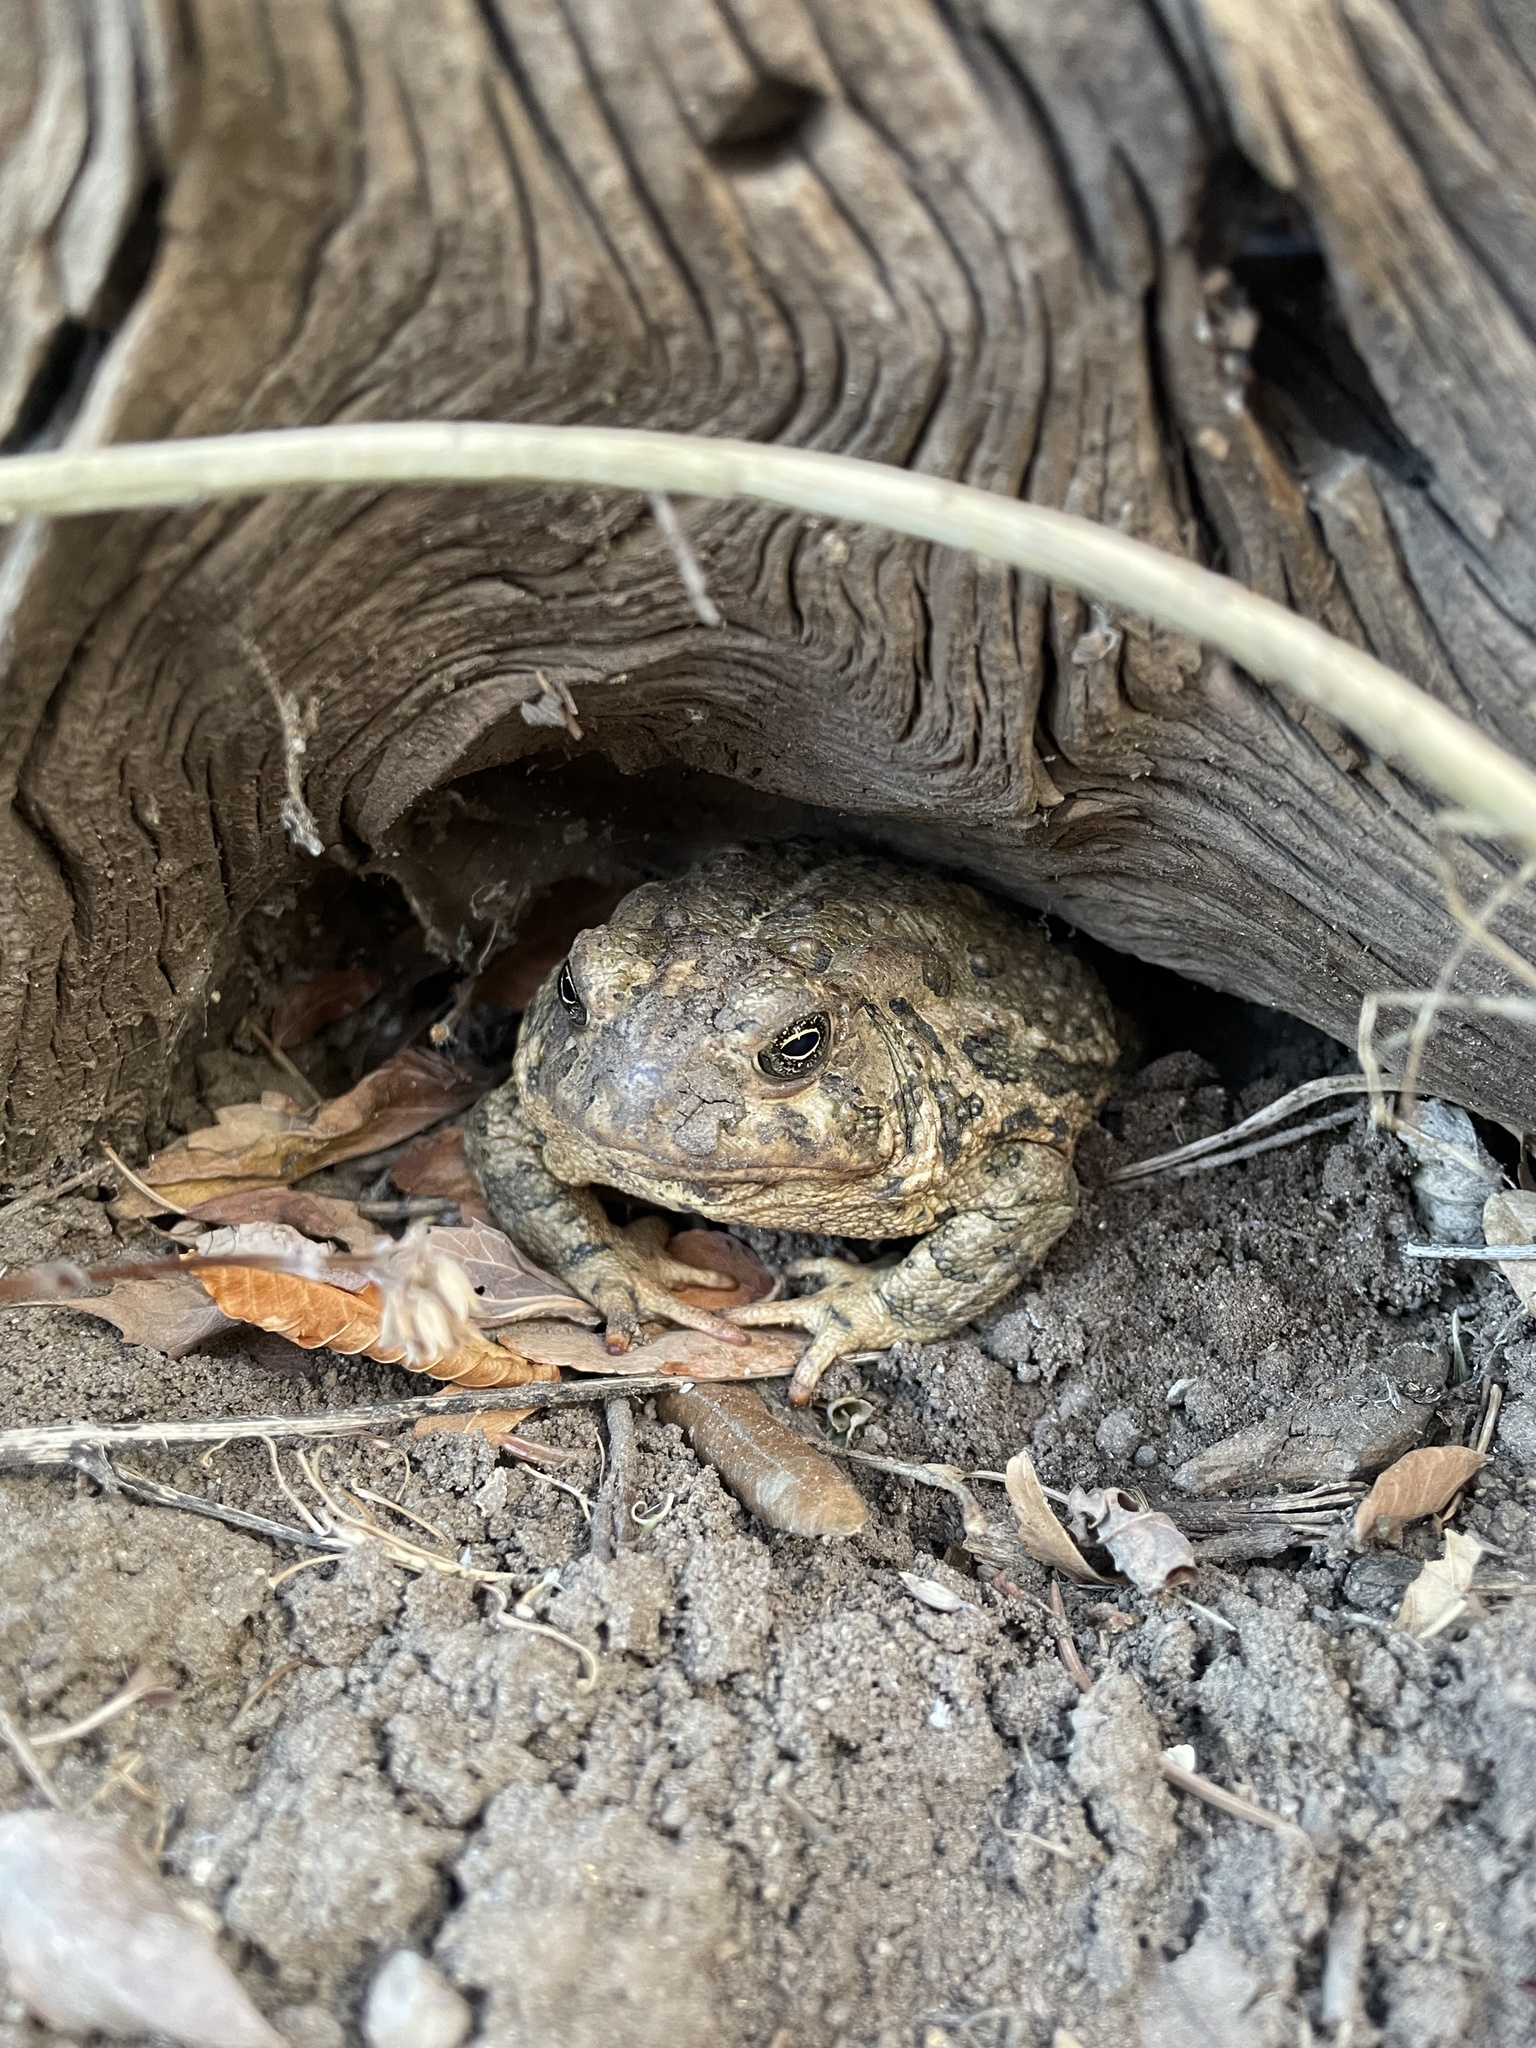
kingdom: Animalia
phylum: Chordata
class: Amphibia
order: Anura
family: Bufonidae
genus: Anaxyrus
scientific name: Anaxyrus woodhousii
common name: Woodhouse's toad
